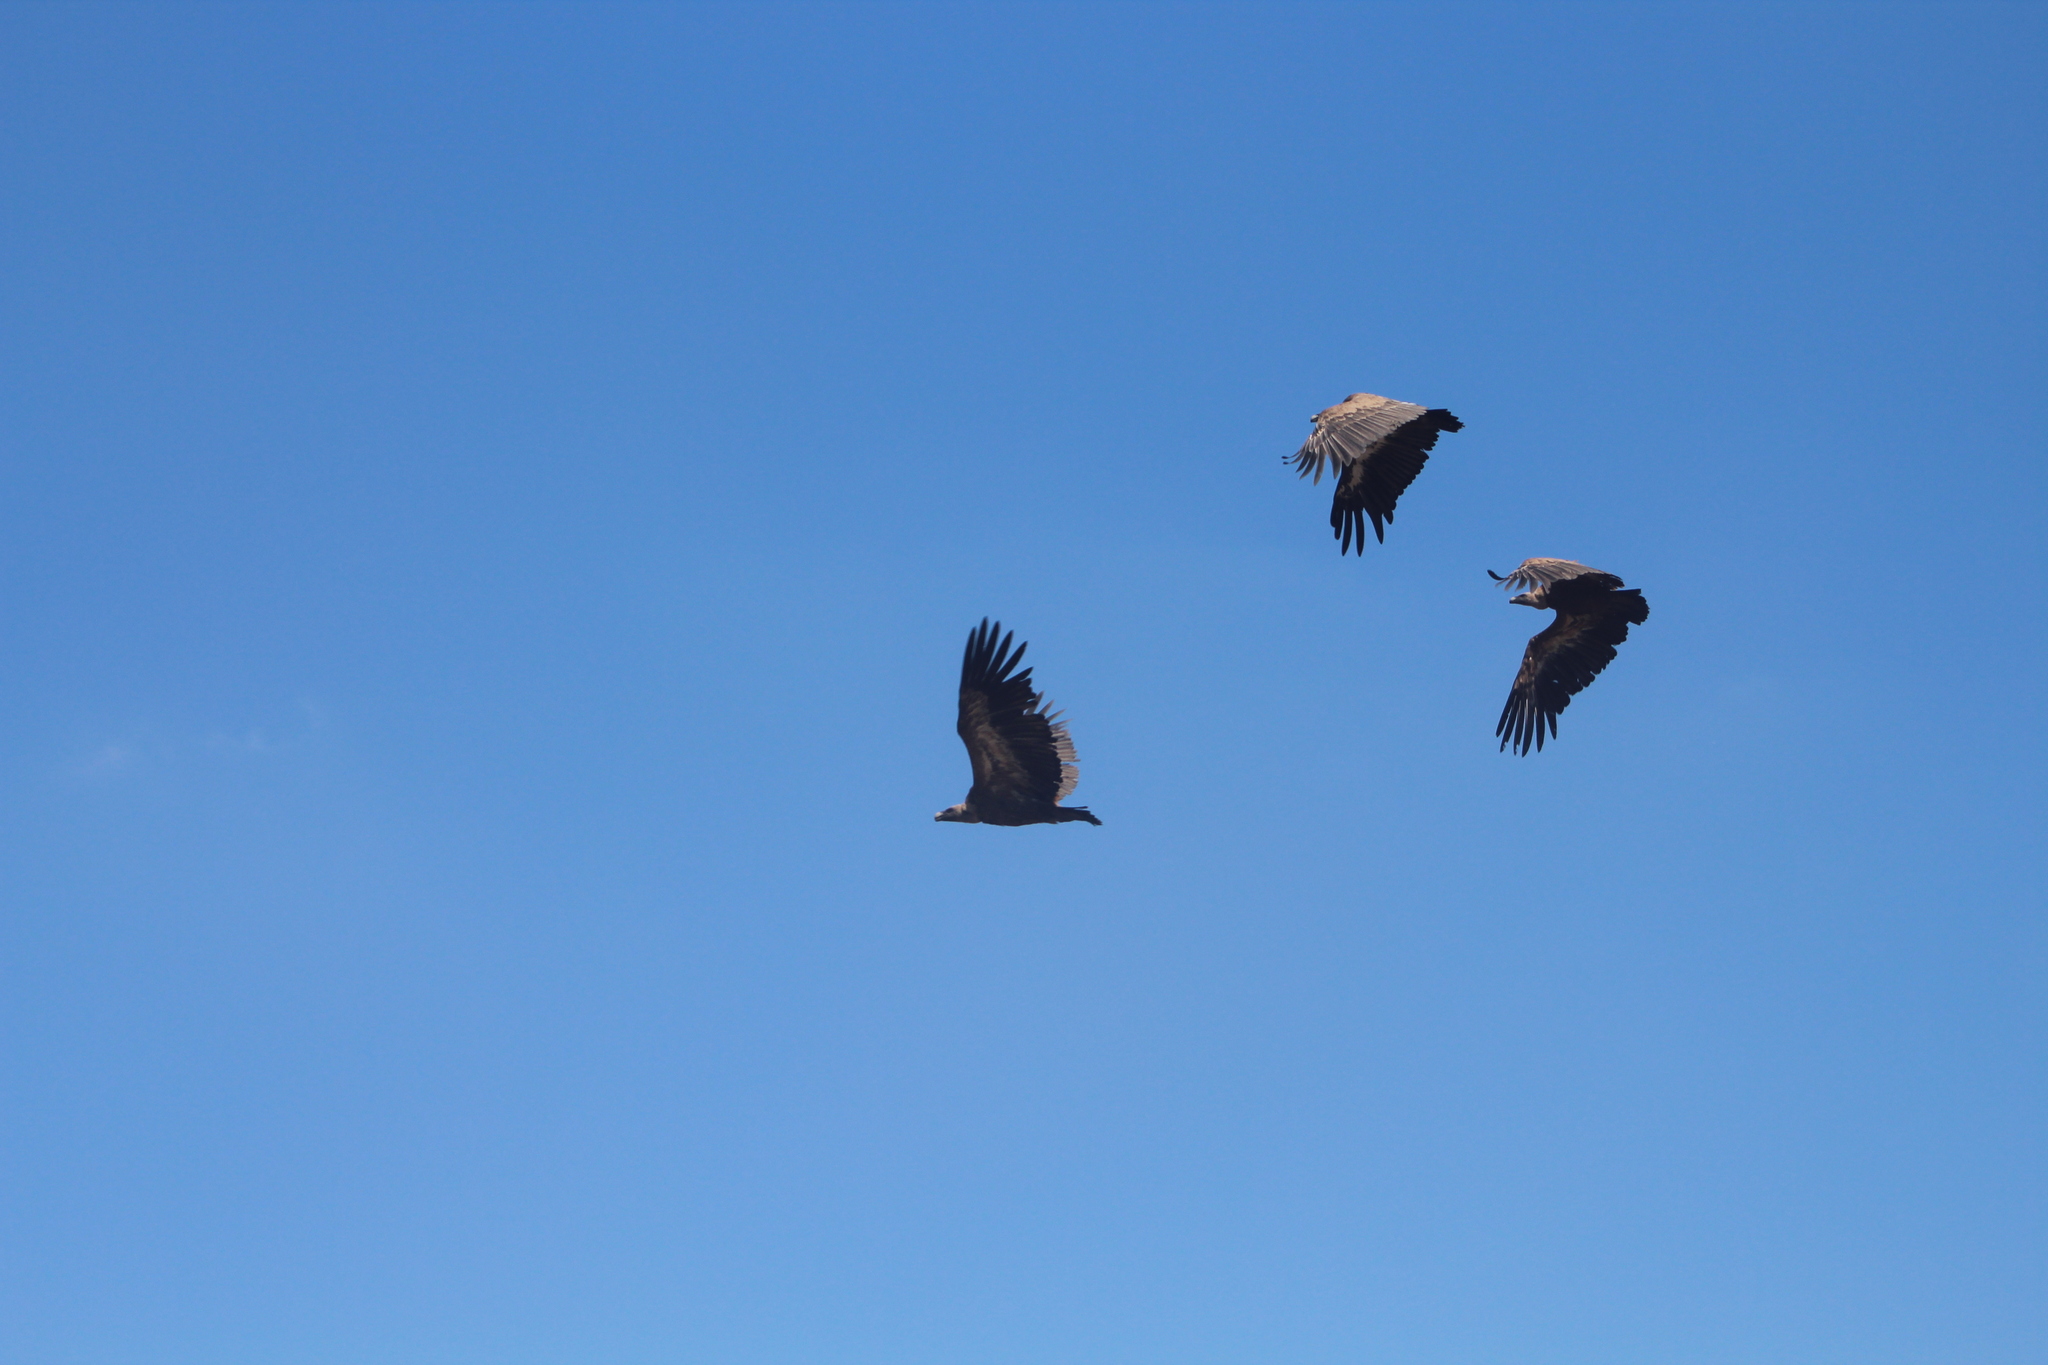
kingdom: Animalia
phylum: Chordata
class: Aves
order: Accipitriformes
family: Accipitridae
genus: Gyps
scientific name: Gyps fulvus
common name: Griffon vulture
